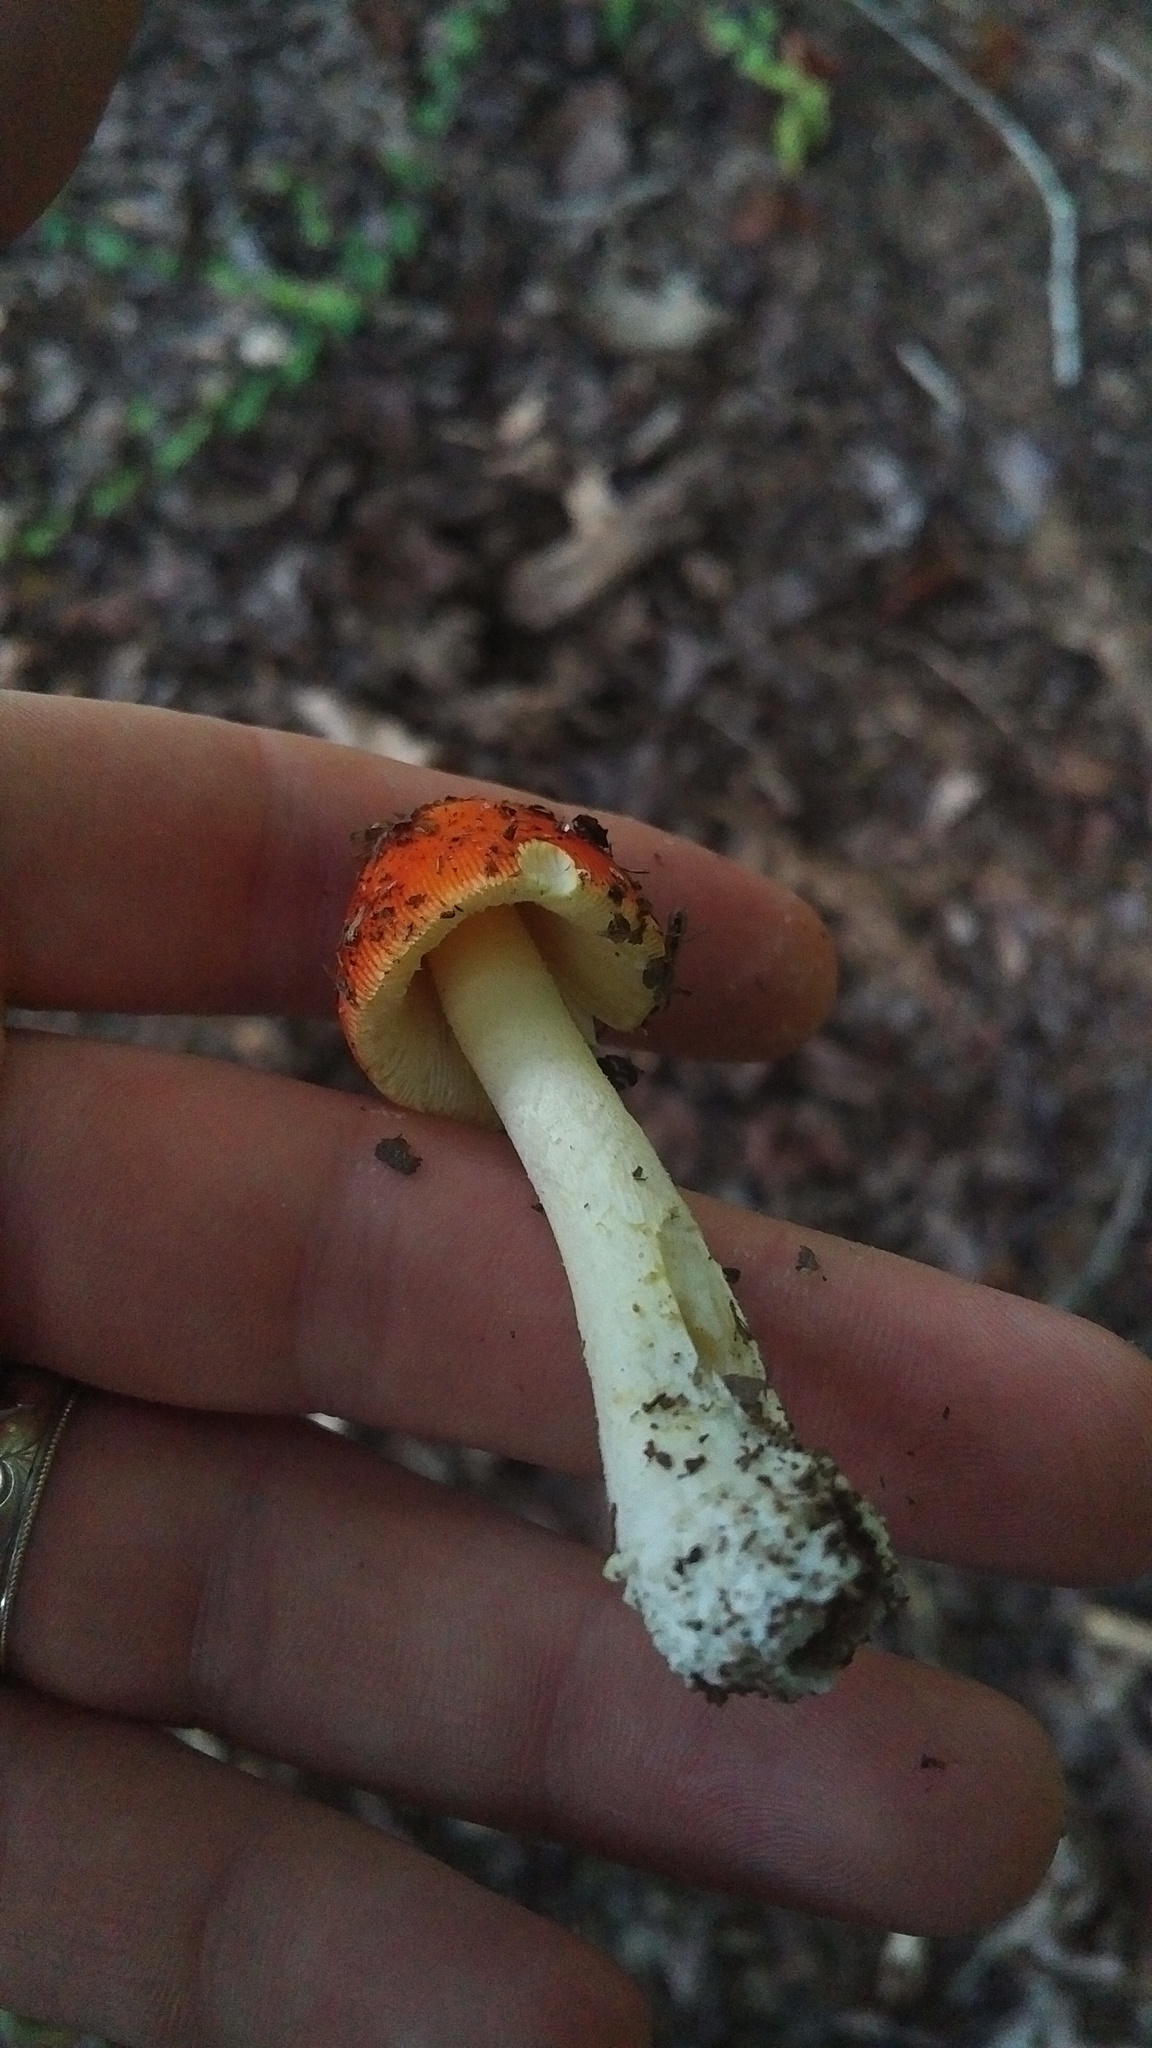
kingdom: Fungi
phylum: Basidiomycota
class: Agaricomycetes
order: Agaricales
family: Amanitaceae
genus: Amanita
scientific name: Amanita parcivolvata
